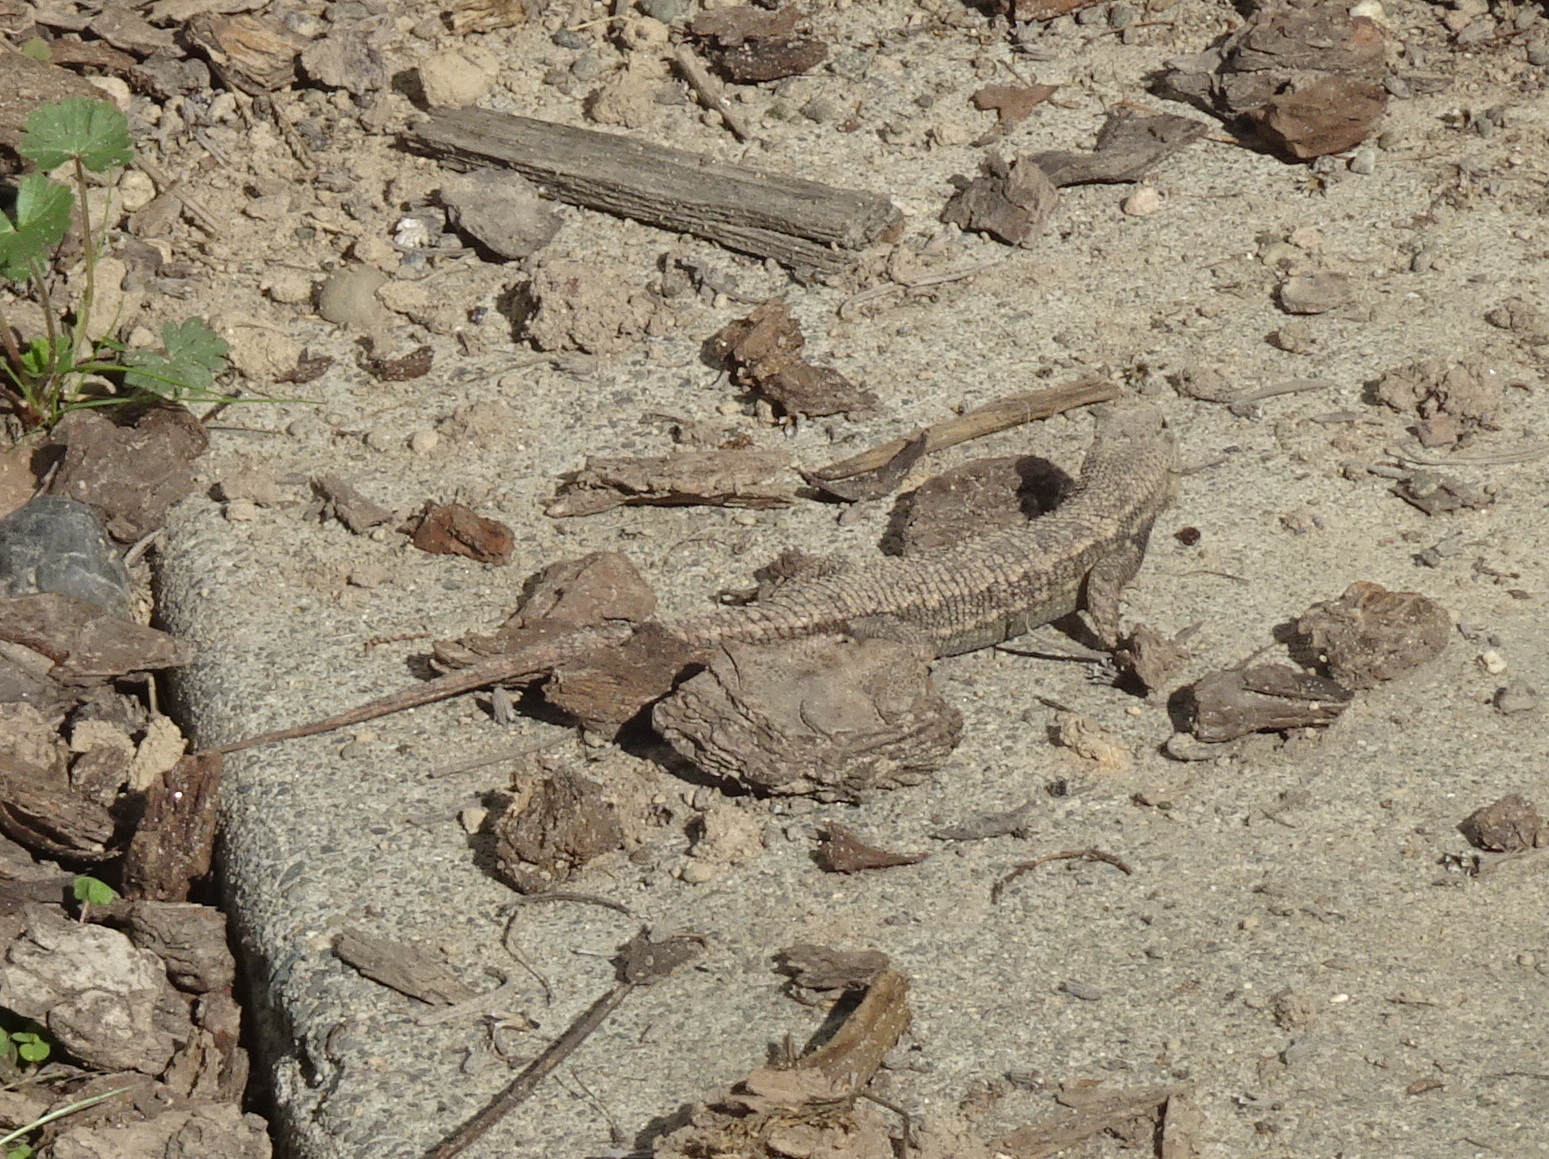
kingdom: Animalia
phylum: Chordata
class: Squamata
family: Phrynosomatidae
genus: Sceloporus
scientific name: Sceloporus occidentalis
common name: Western fence lizard
